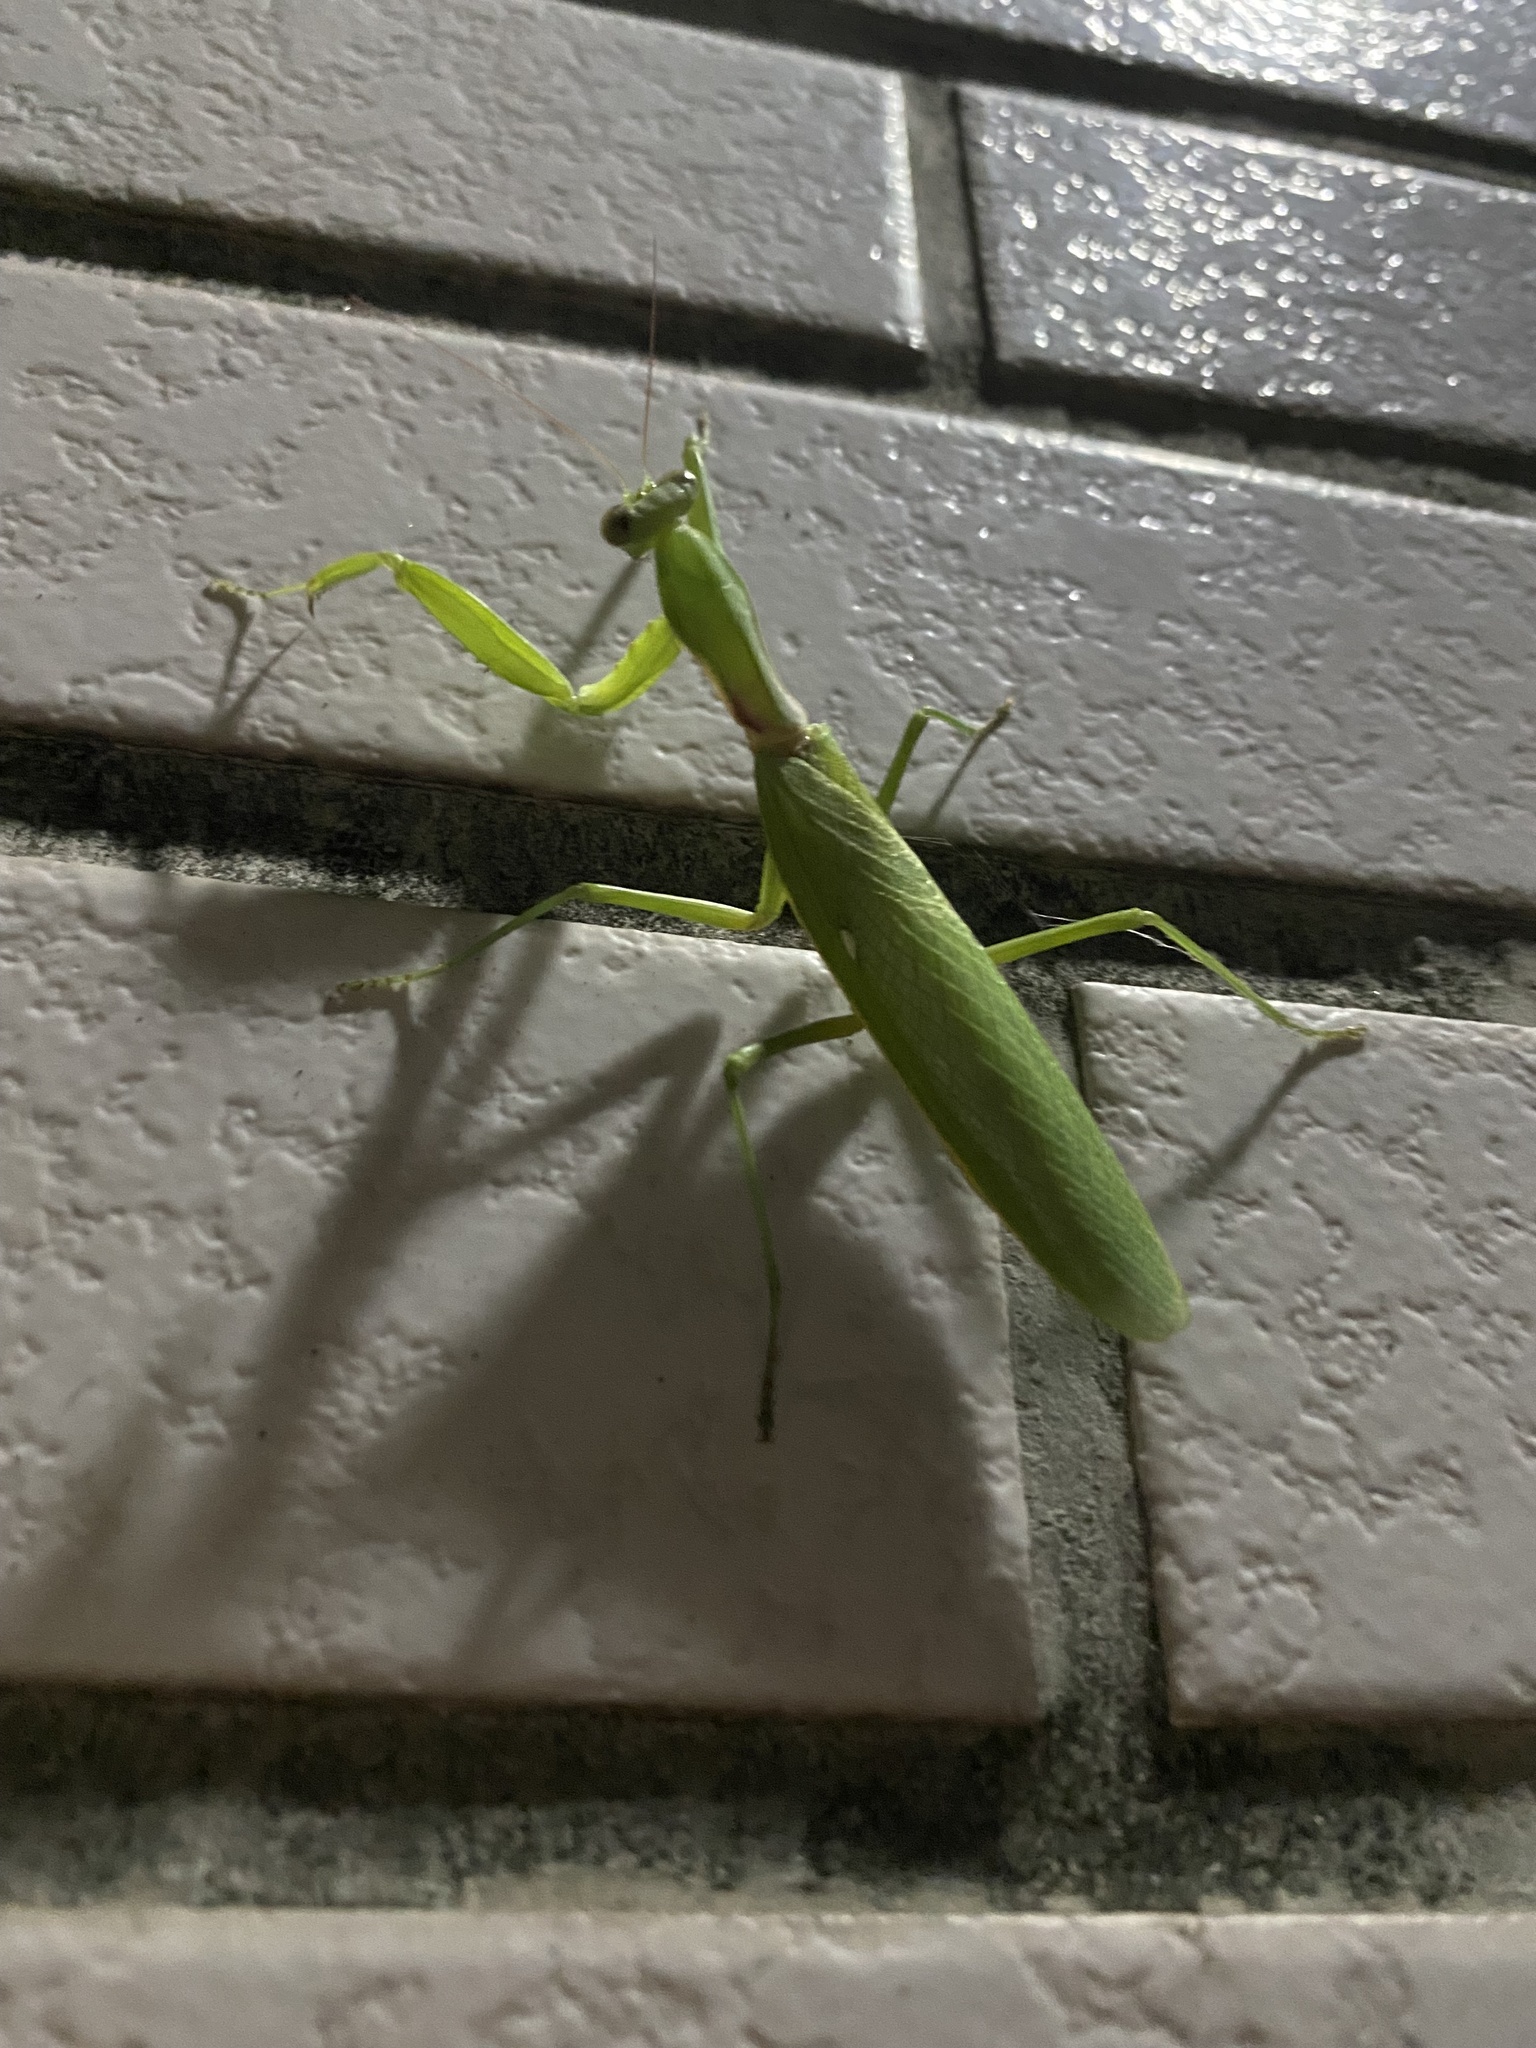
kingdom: Animalia
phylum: Arthropoda
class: Insecta
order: Mantodea
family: Mantidae
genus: Hierodula
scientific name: Hierodula patellifera
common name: Asian mantis
